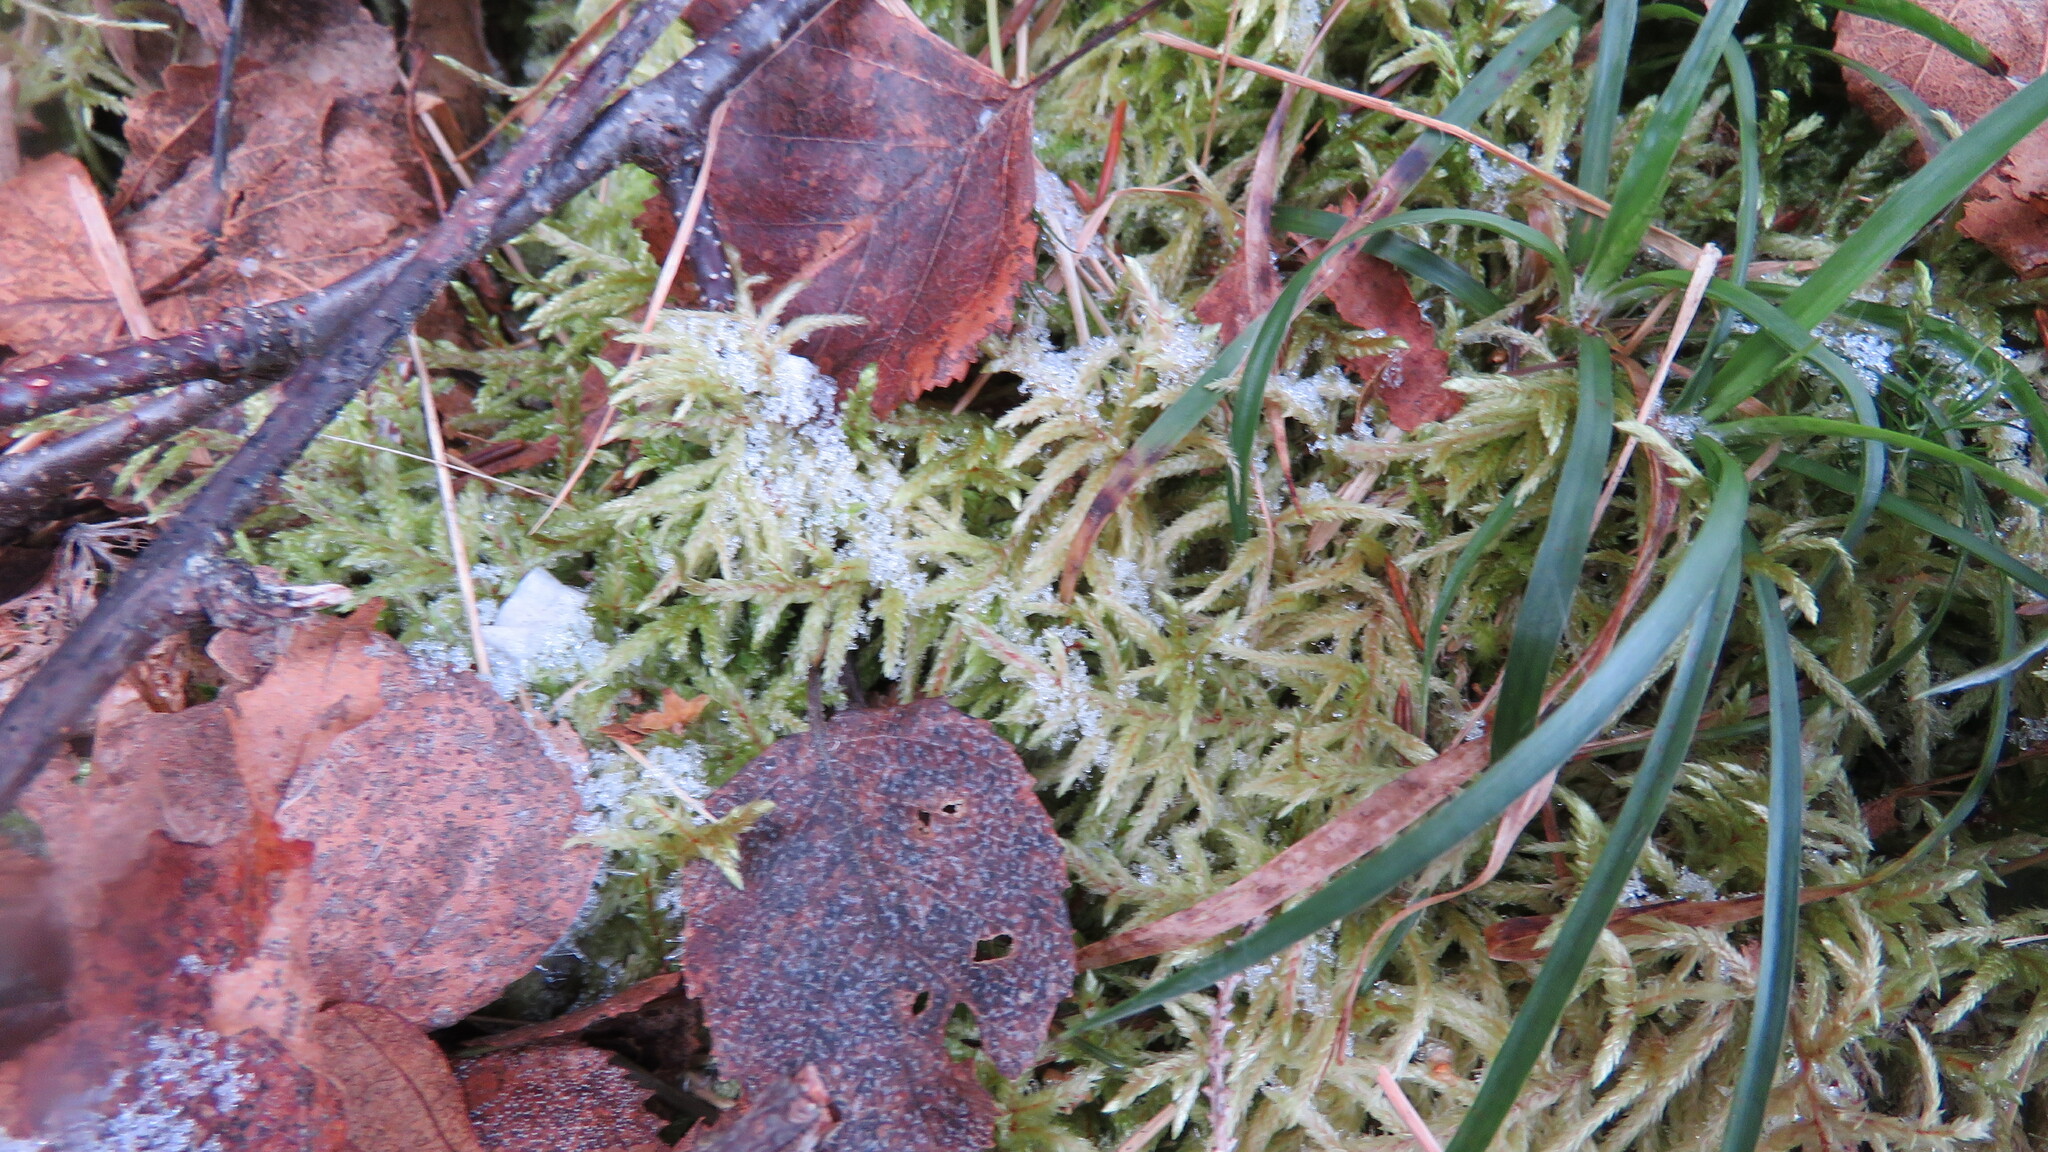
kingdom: Plantae
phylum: Bryophyta
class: Bryopsida
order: Hypnales
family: Hylocomiaceae
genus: Pleurozium
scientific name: Pleurozium schreberi
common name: Red-stemmed feather moss
